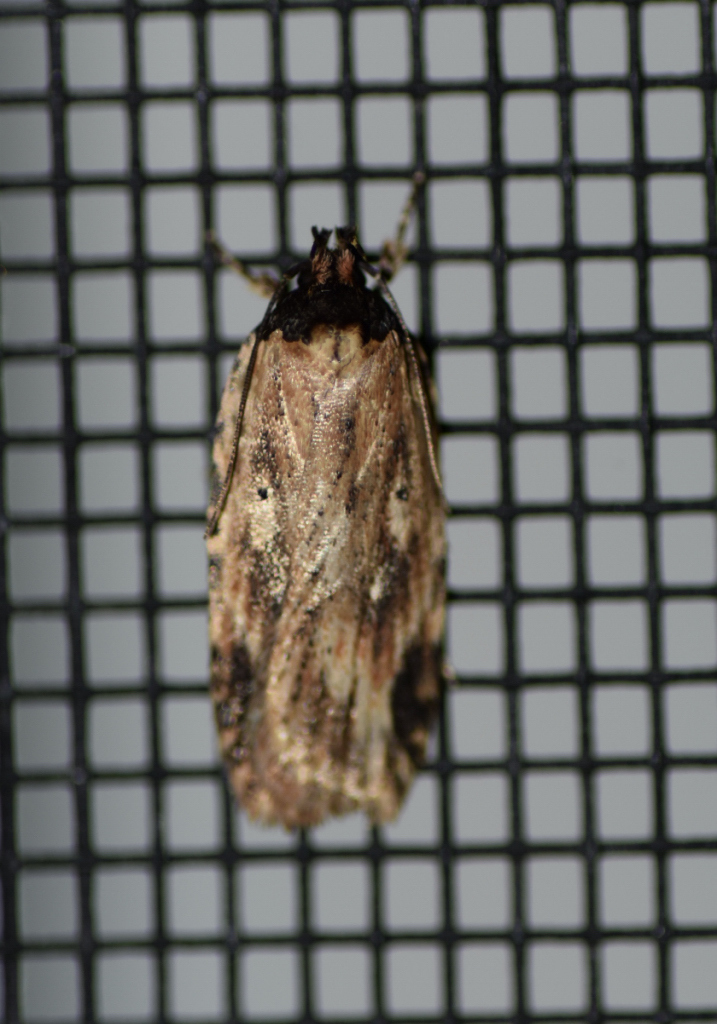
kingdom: Animalia
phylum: Arthropoda
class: Insecta
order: Lepidoptera
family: Depressariidae
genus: Agonopterix
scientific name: Agonopterix atrodorsella
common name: Beggartick leaffolder
